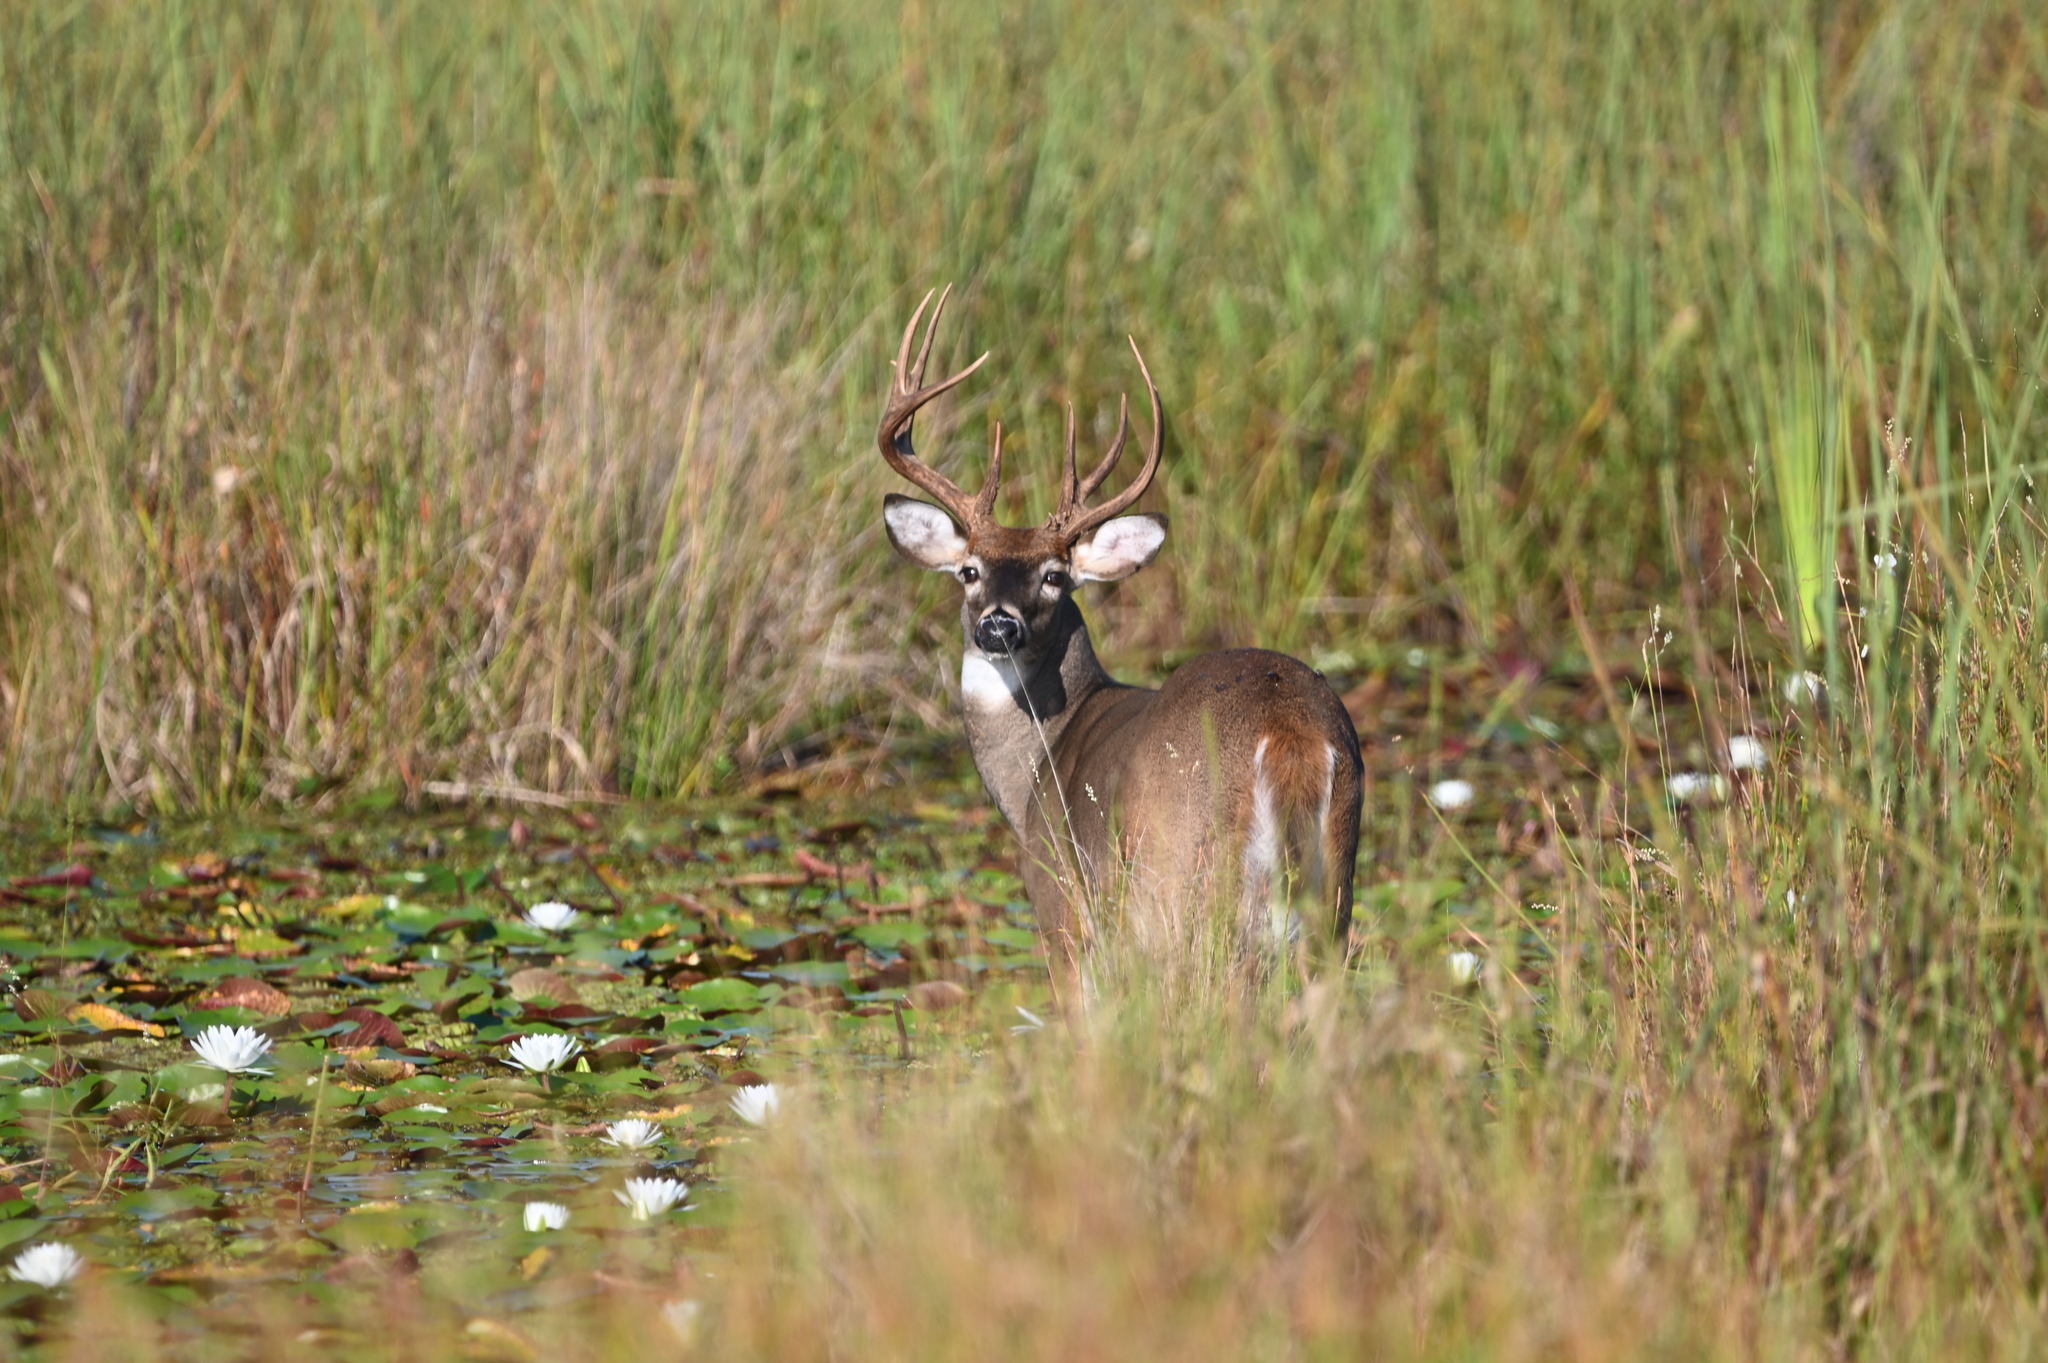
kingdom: Animalia
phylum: Chordata
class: Mammalia
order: Artiodactyla
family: Cervidae
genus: Odocoileus
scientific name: Odocoileus virginianus
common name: White-tailed deer
